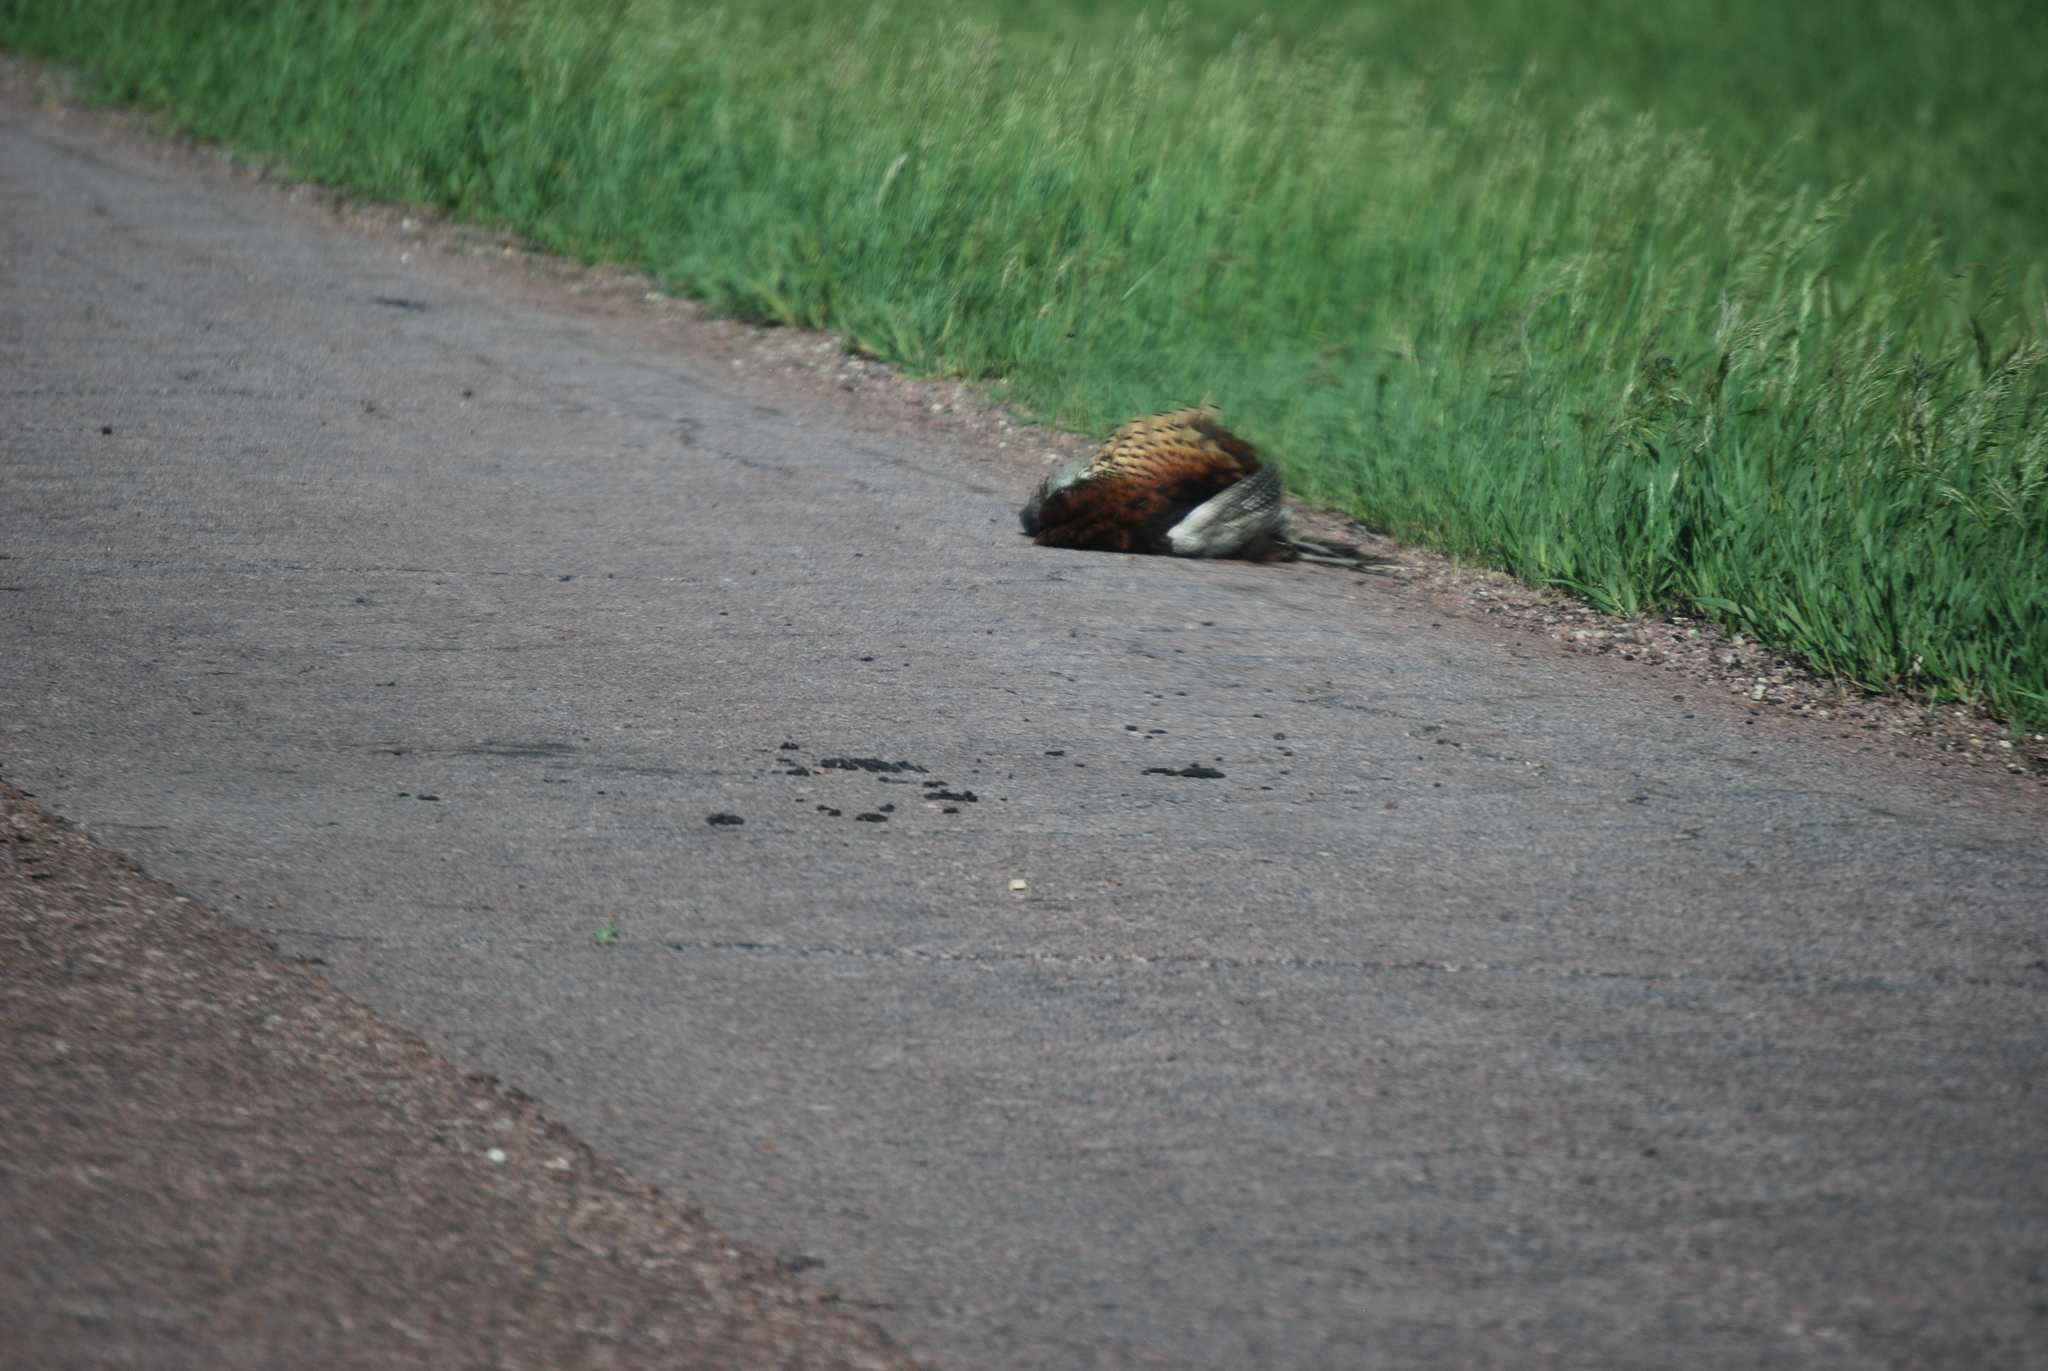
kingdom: Animalia
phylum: Chordata
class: Aves
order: Galliformes
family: Phasianidae
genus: Phasianus
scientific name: Phasianus colchicus
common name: Common pheasant
